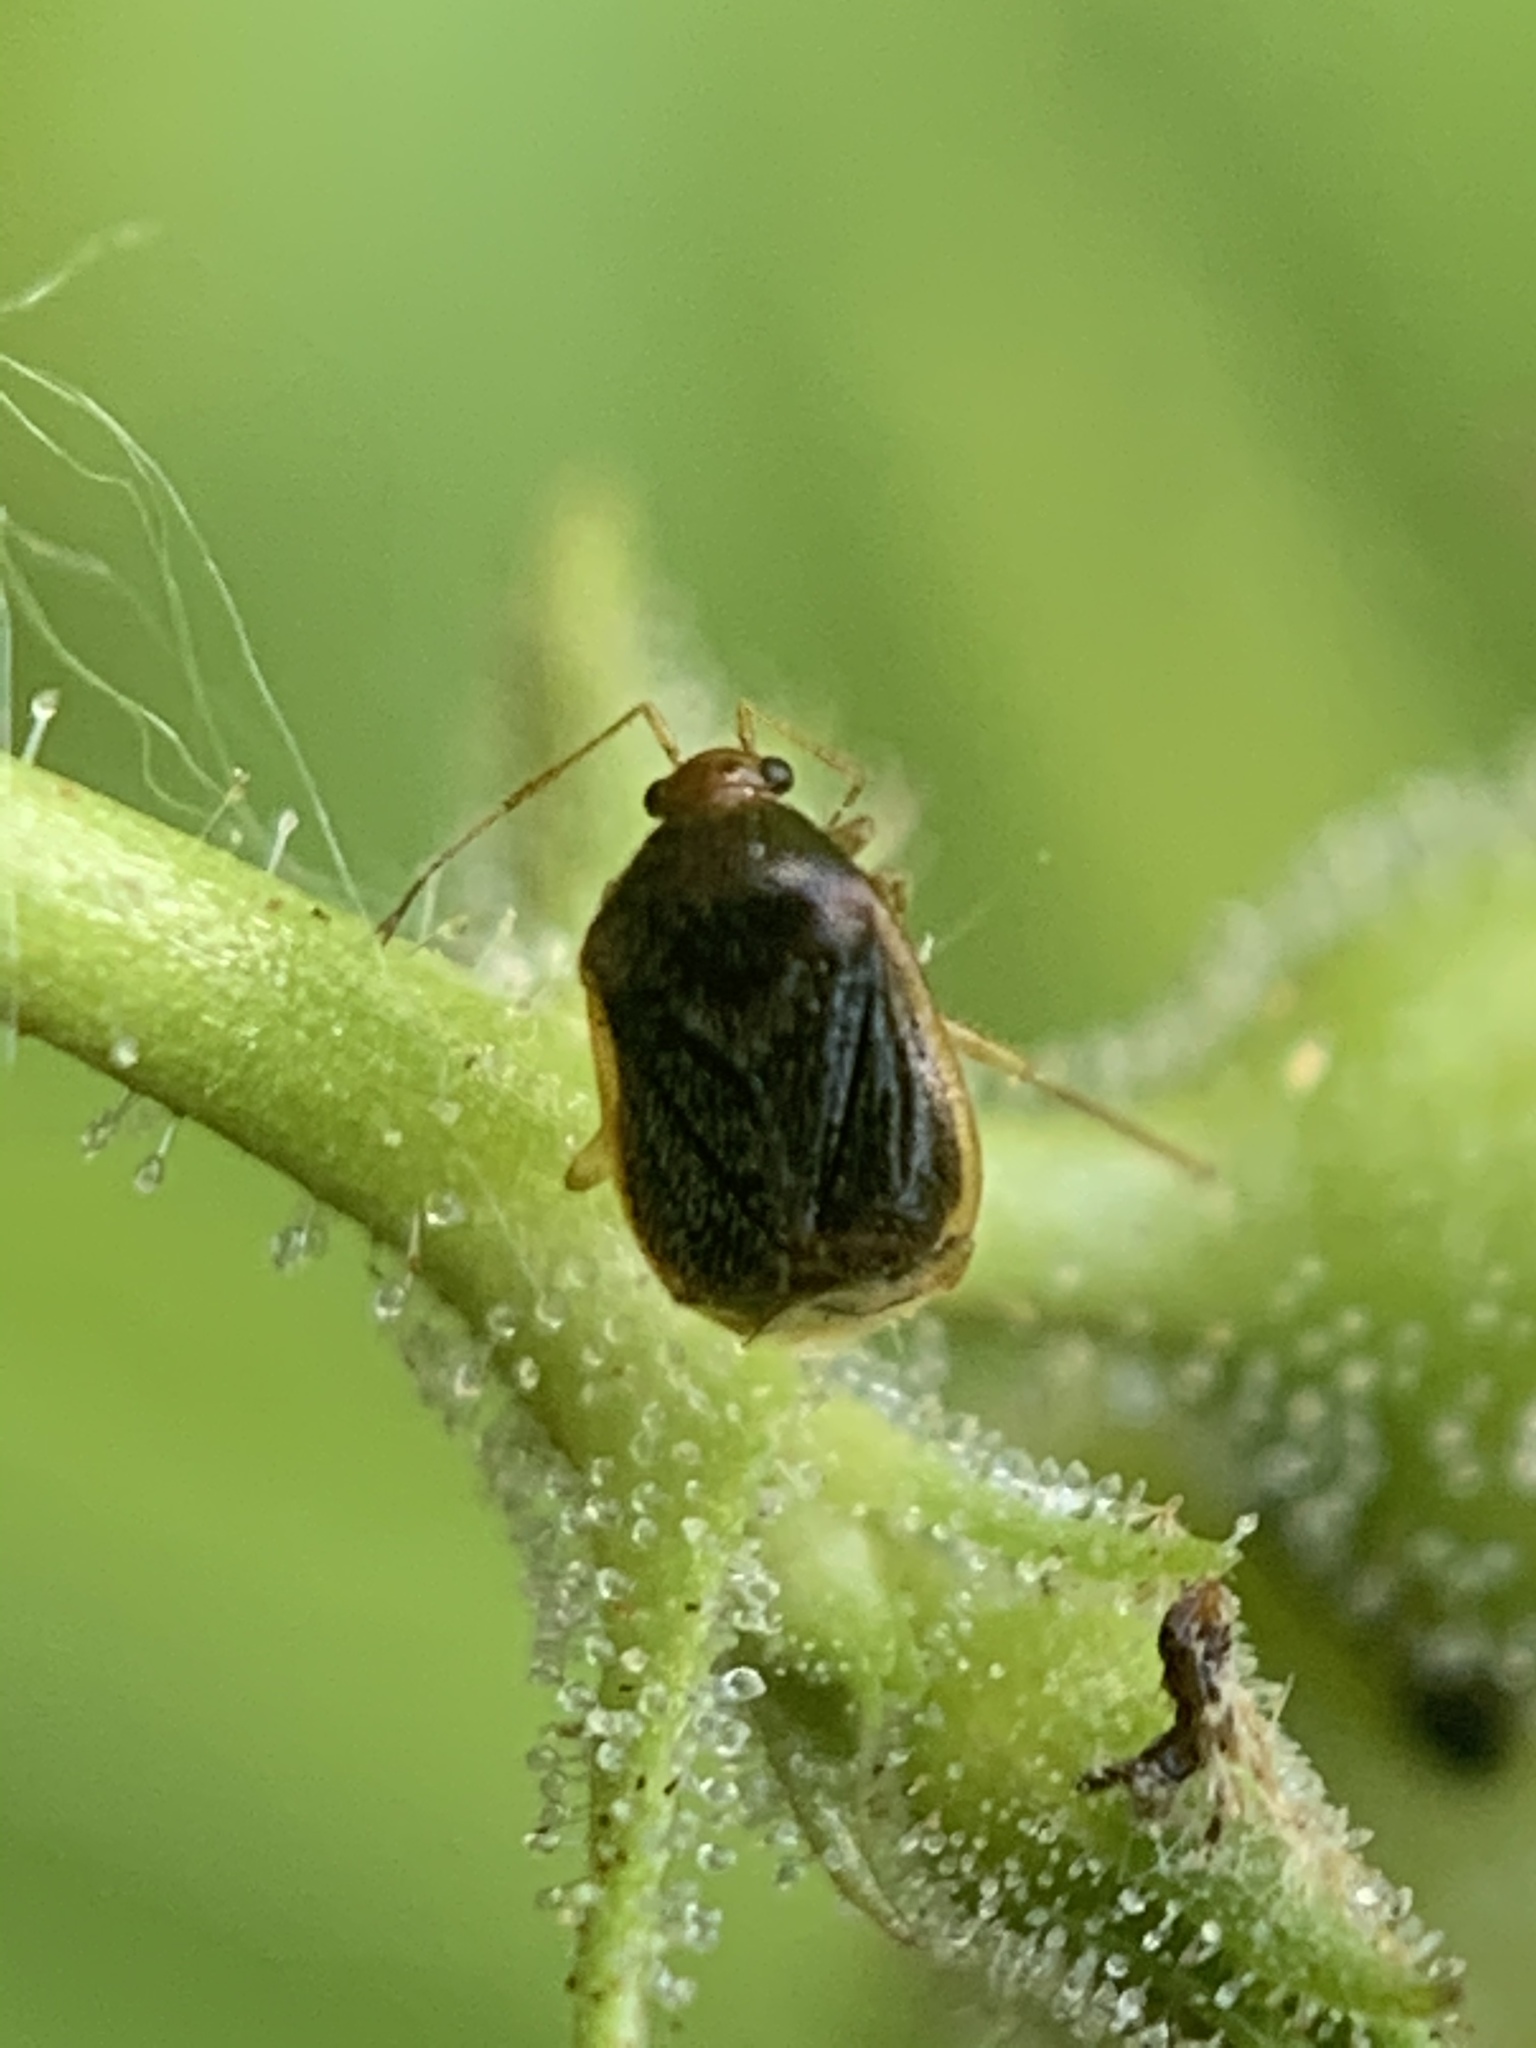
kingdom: Animalia
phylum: Arthropoda
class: Insecta
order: Hemiptera
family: Miridae
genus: Monalocoris
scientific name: Monalocoris americanus
